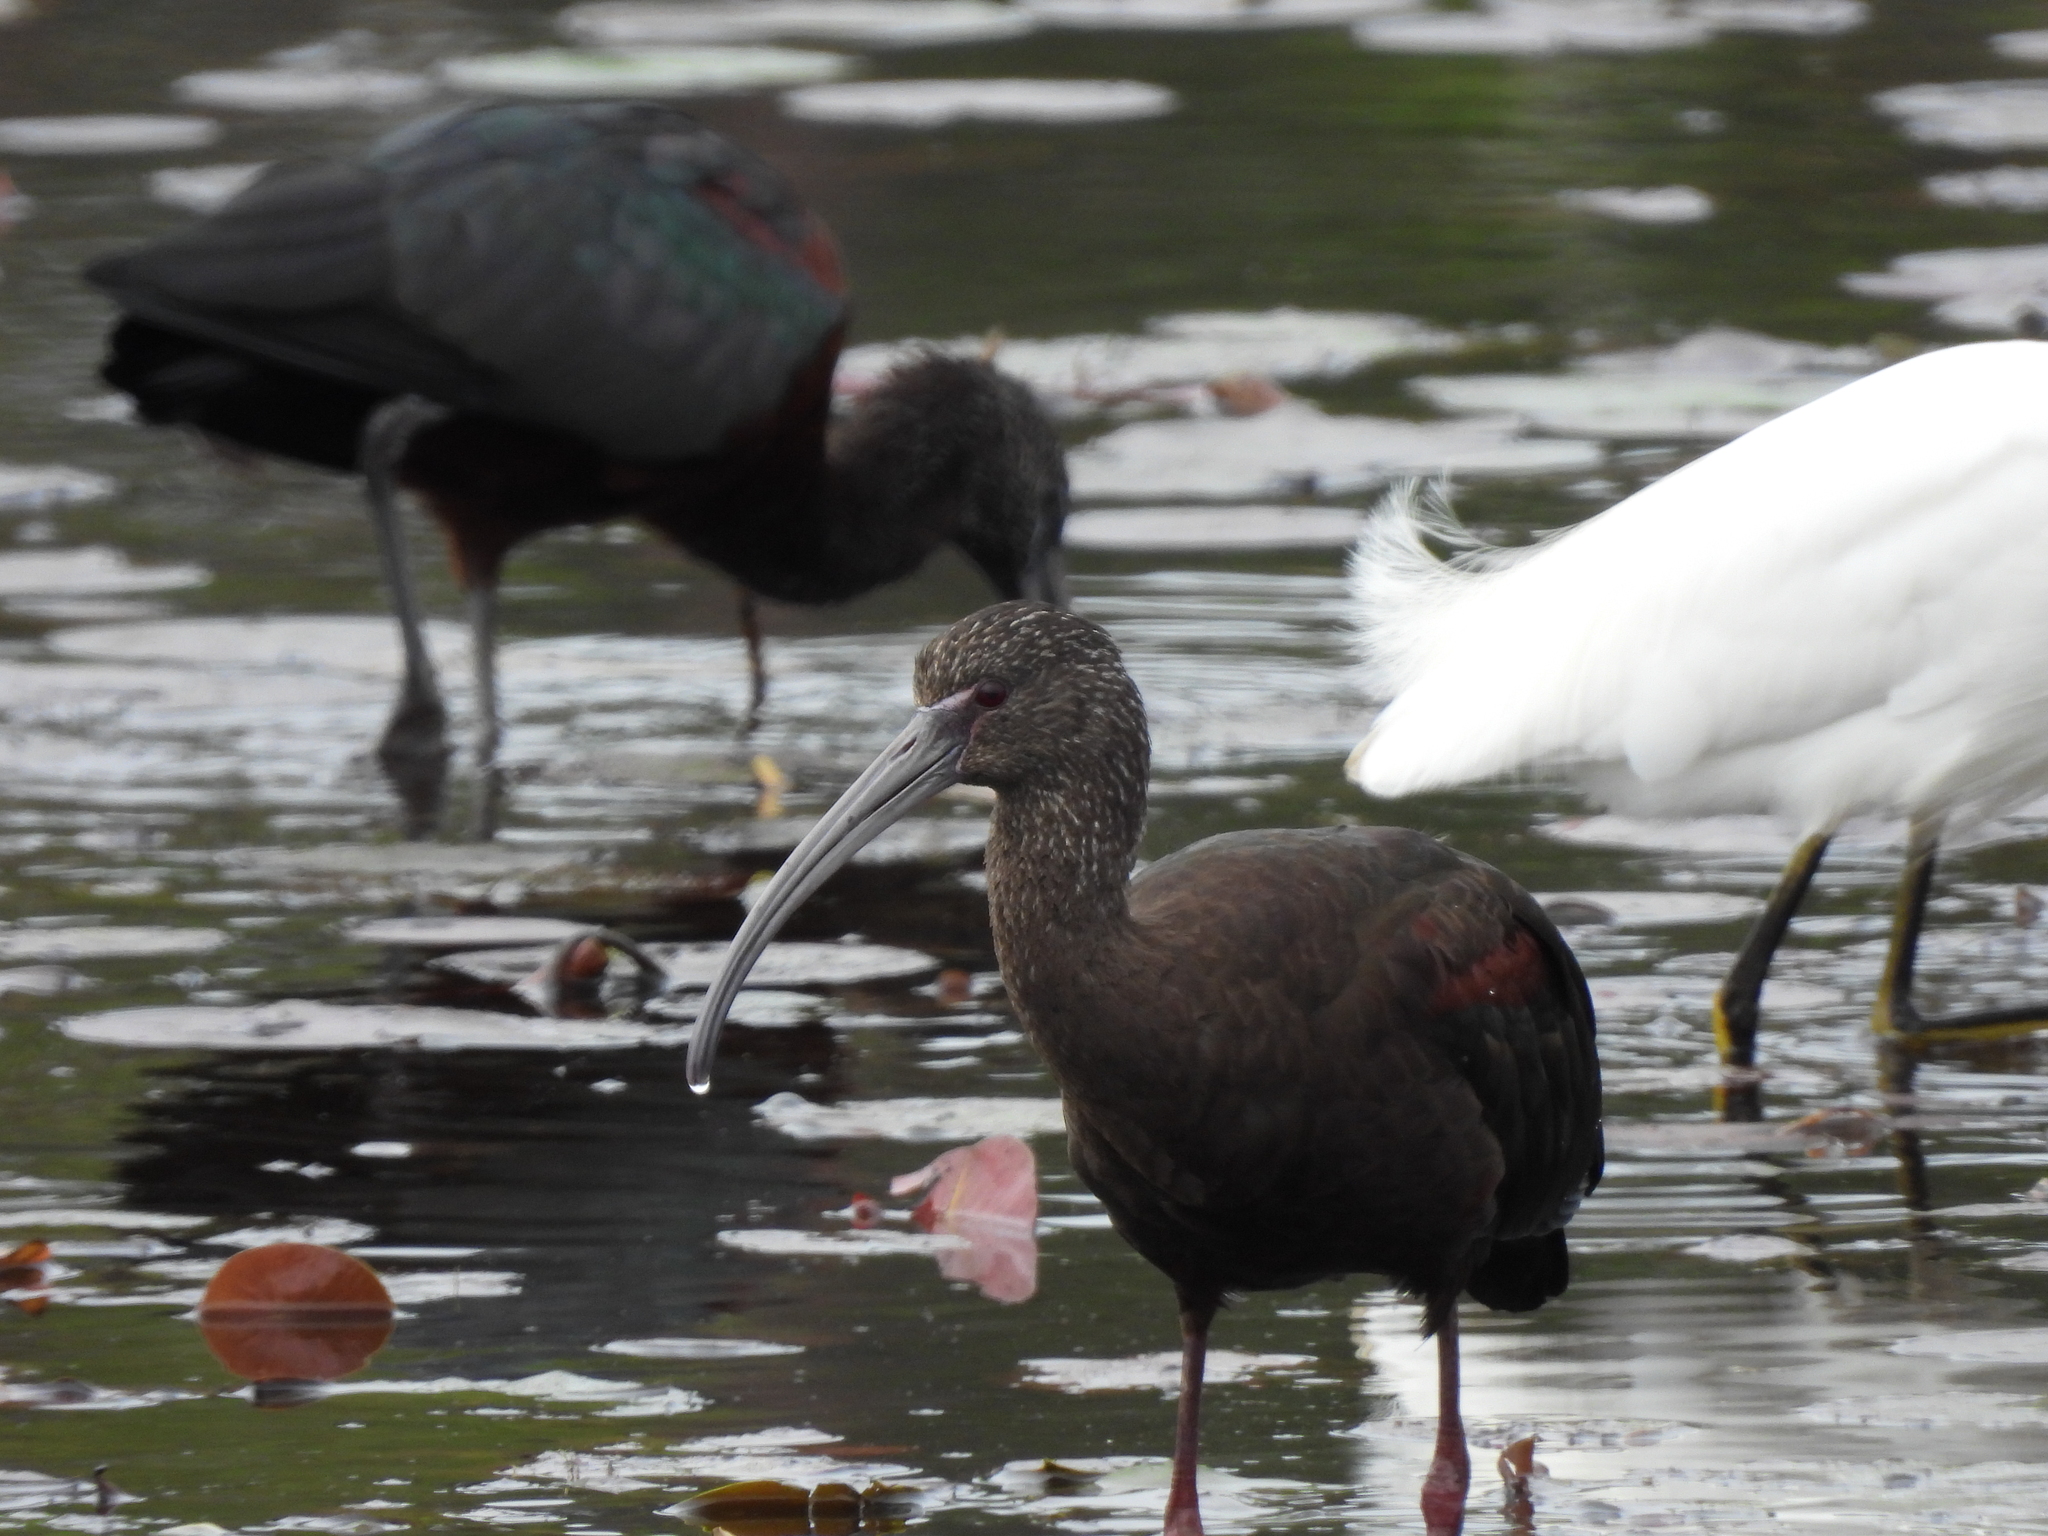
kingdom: Animalia
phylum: Chordata
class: Aves
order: Pelecaniformes
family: Threskiornithidae
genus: Plegadis
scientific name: Plegadis chihi
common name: White-faced ibis
